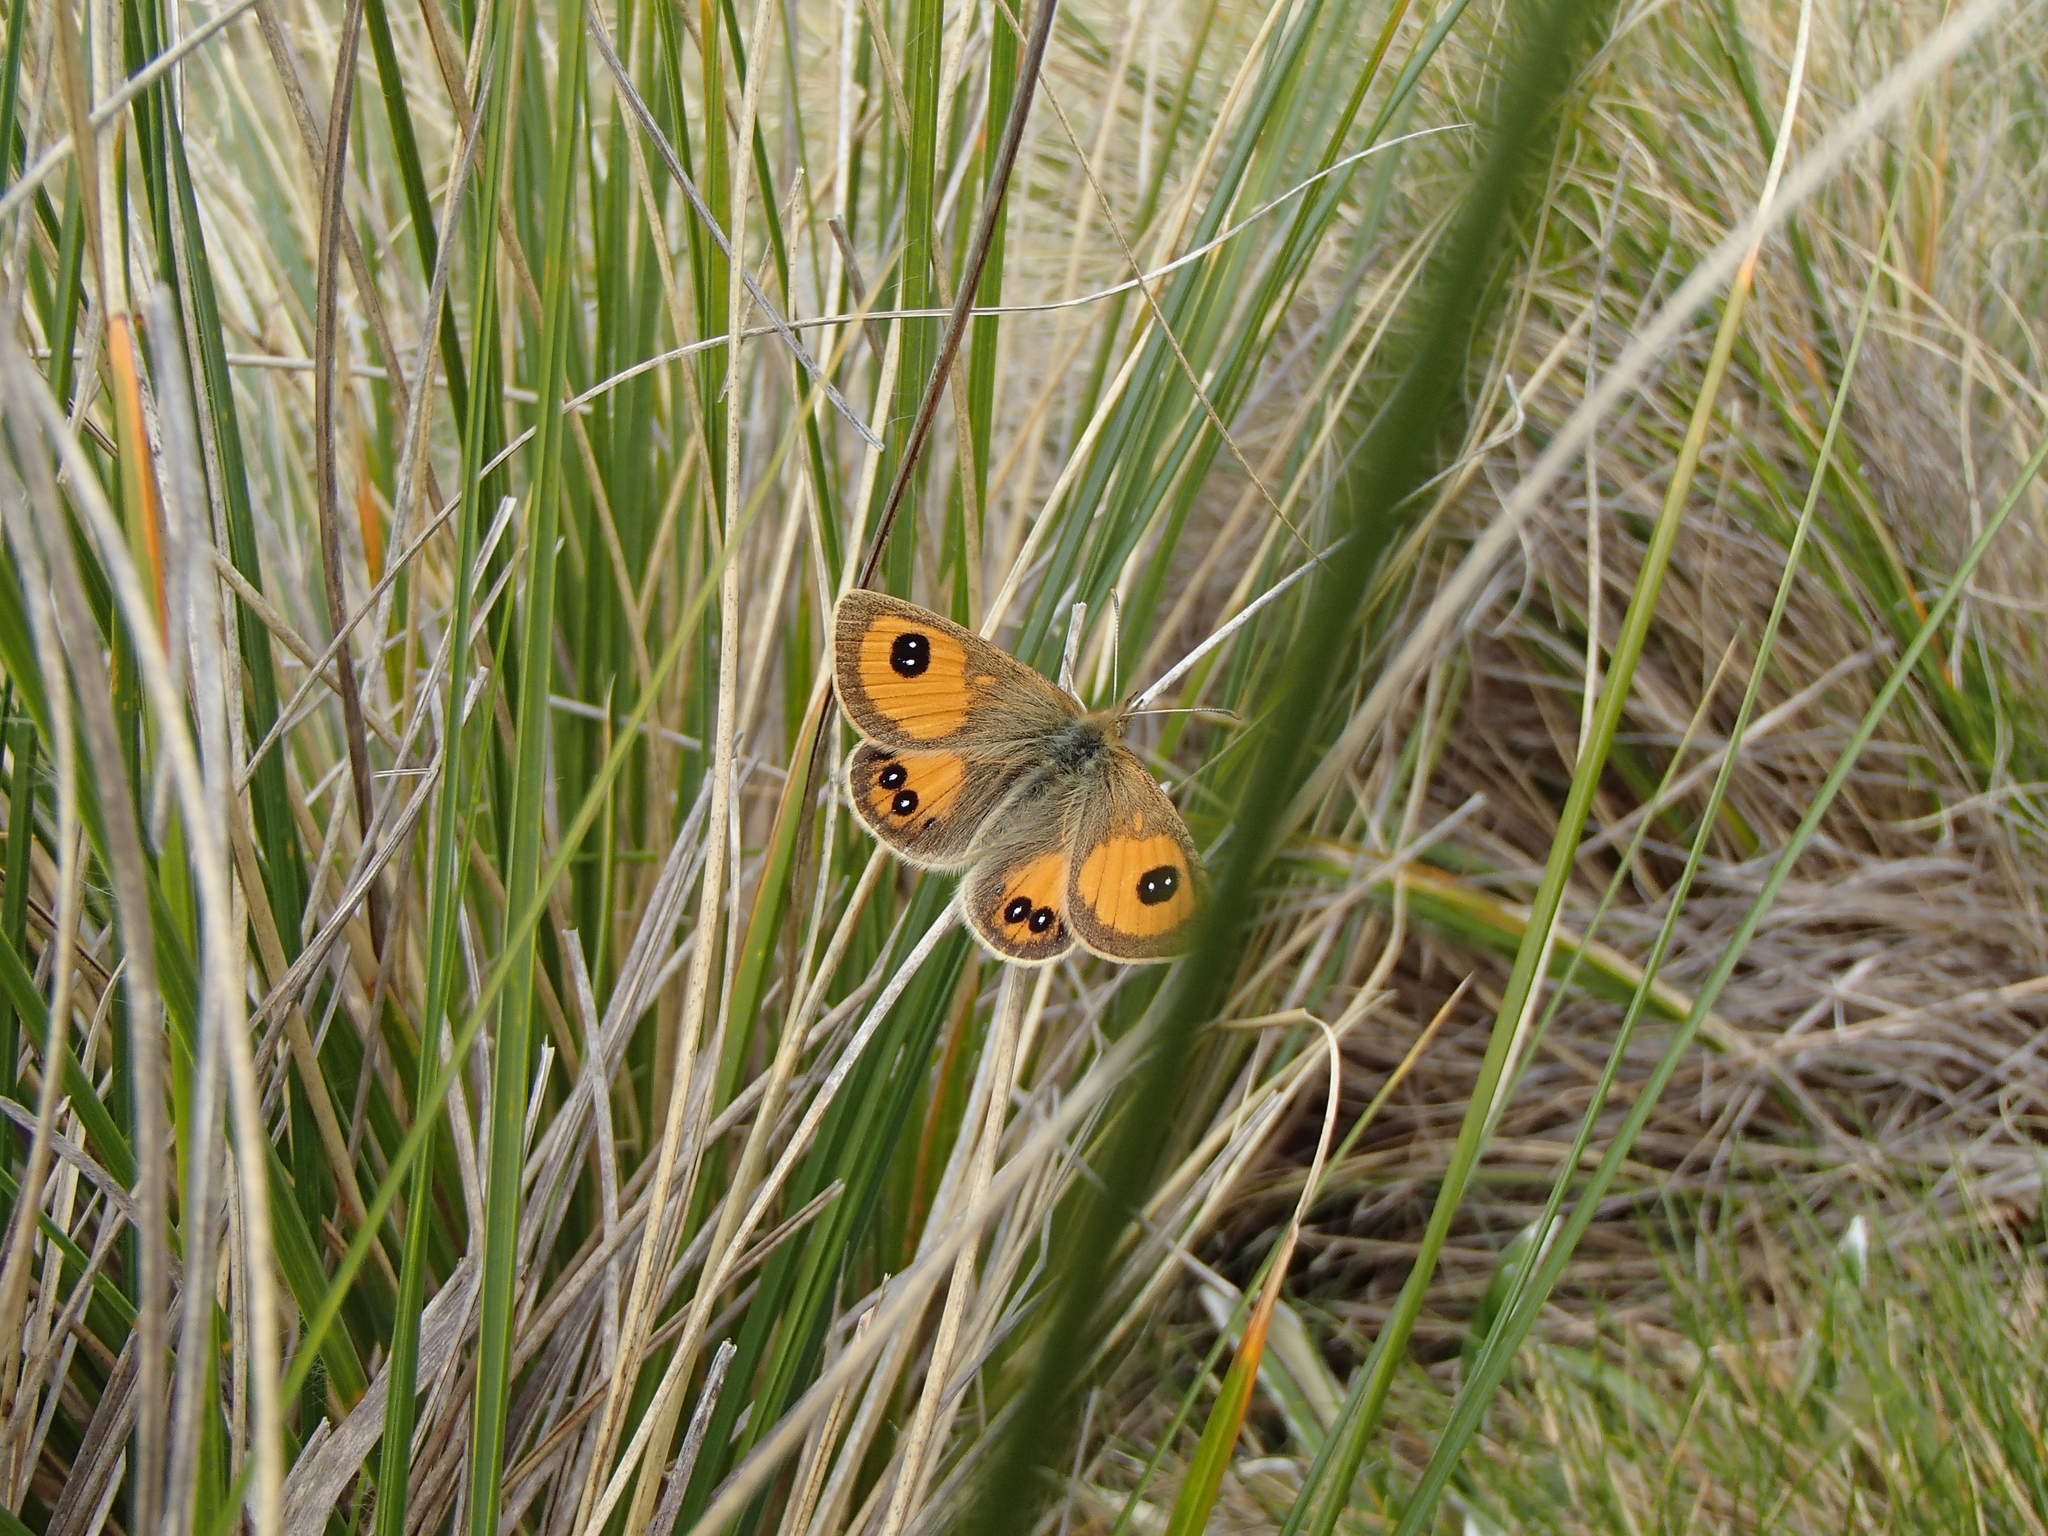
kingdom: Animalia
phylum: Arthropoda
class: Insecta
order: Lepidoptera
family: Nymphalidae
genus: Argyrophenga
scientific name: Argyrophenga janitae
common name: Janita's tussock
